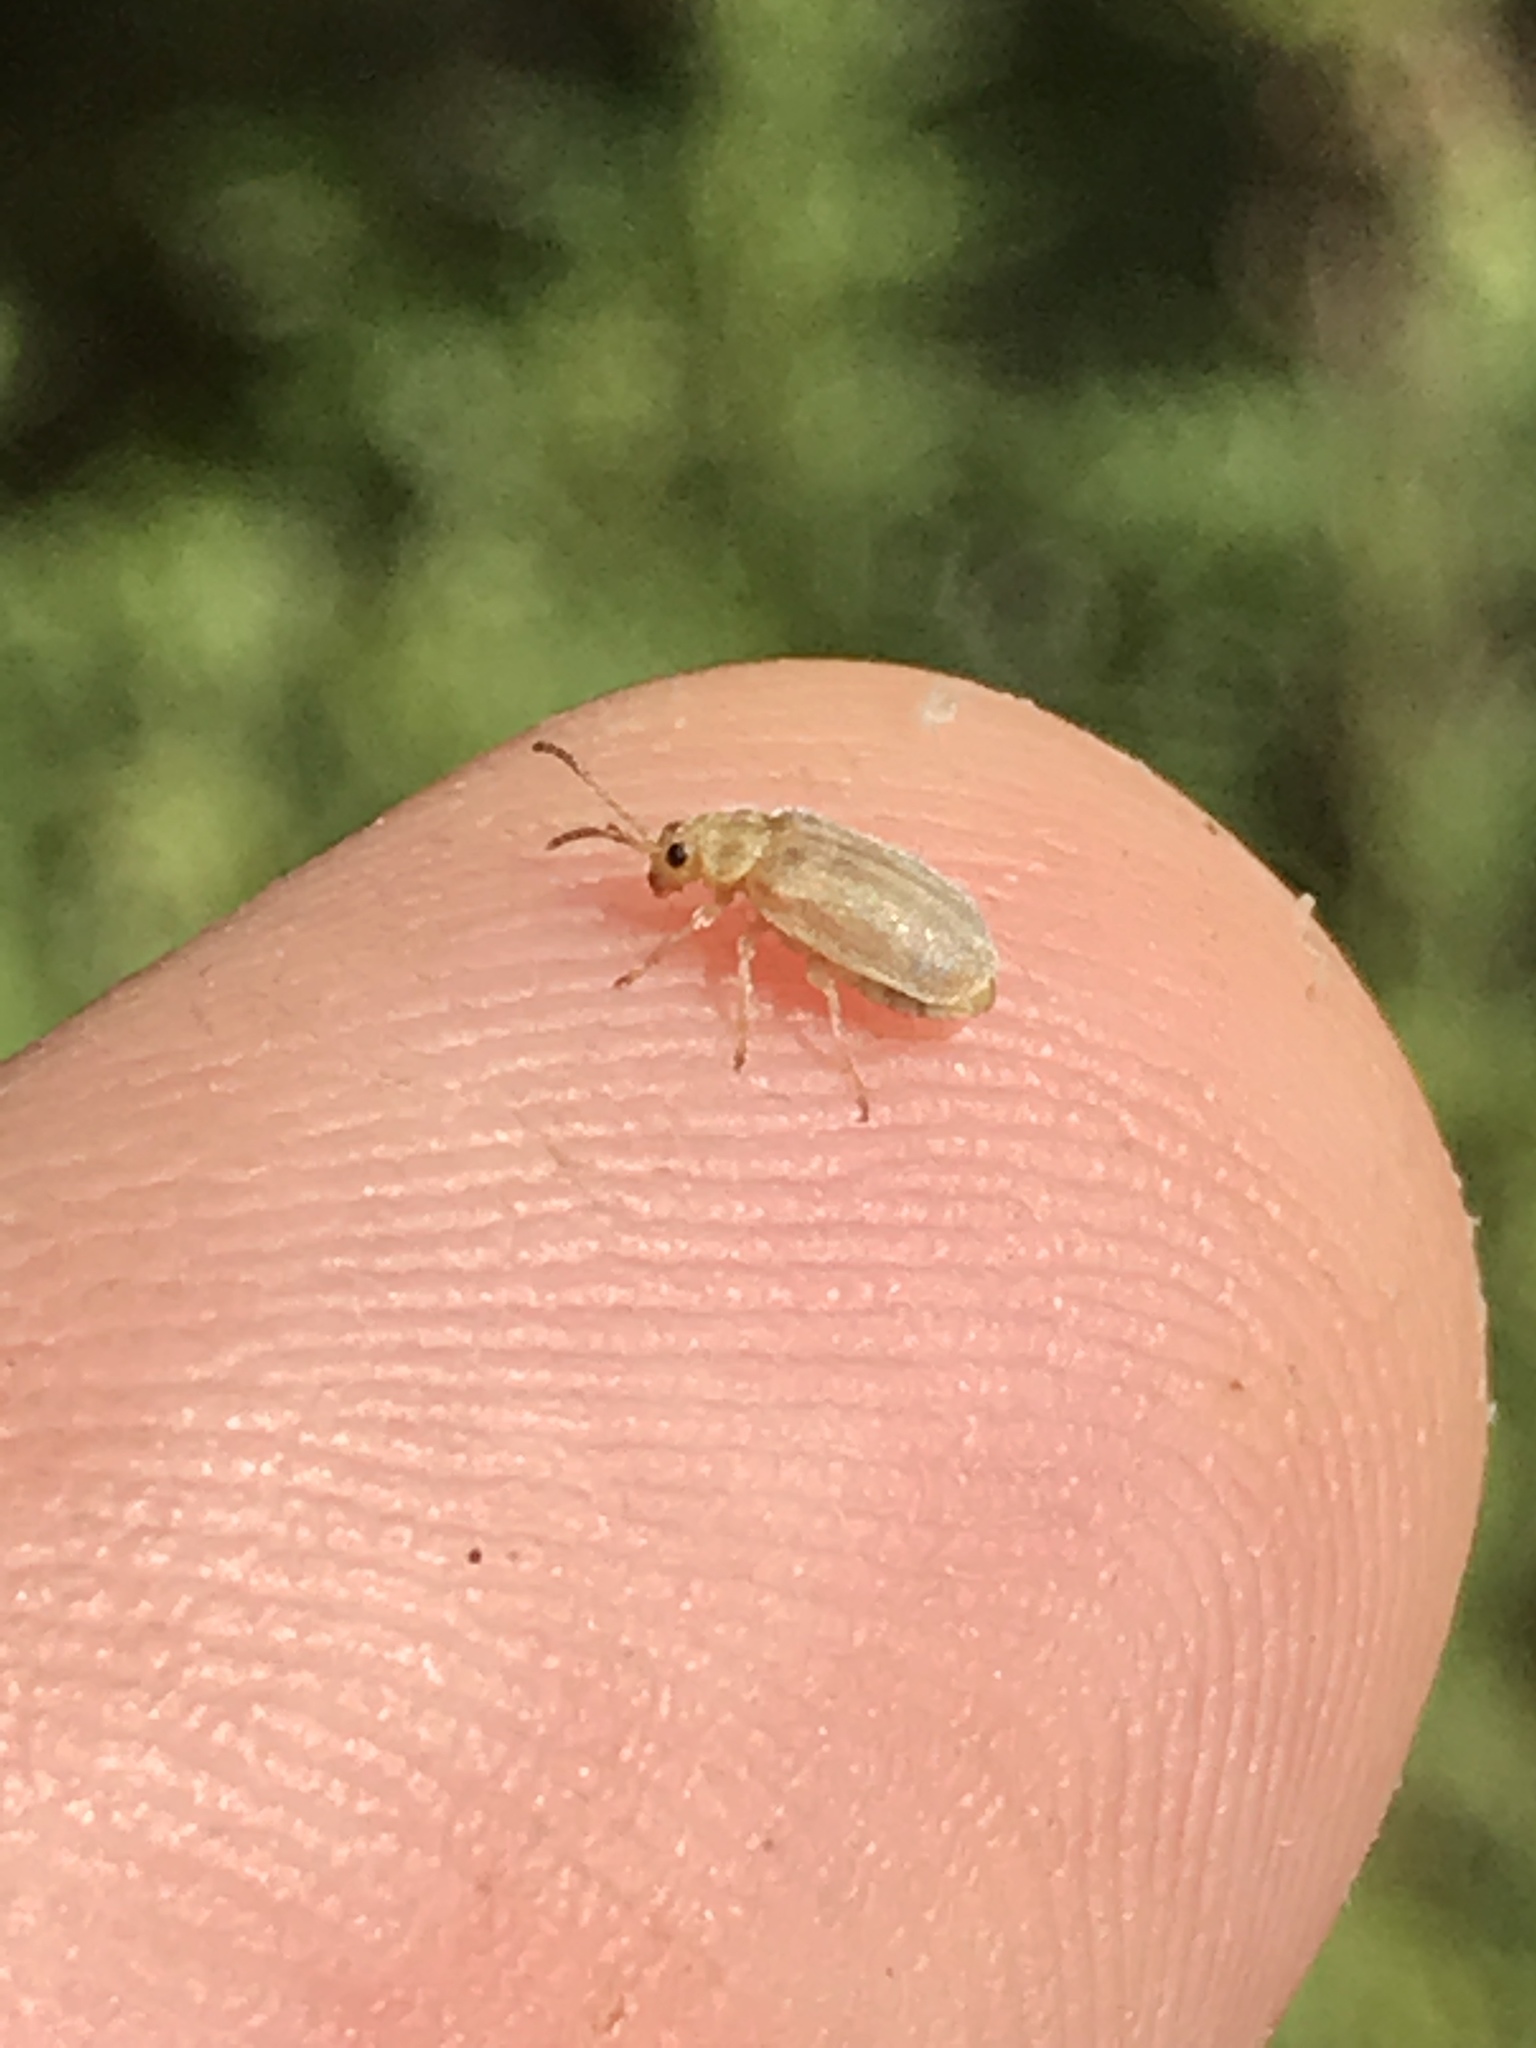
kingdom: Animalia
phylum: Arthropoda
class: Insecta
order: Coleoptera
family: Chrysomelidae
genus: Ophraella
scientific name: Ophraella communa
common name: Ragweed leaf beetle
